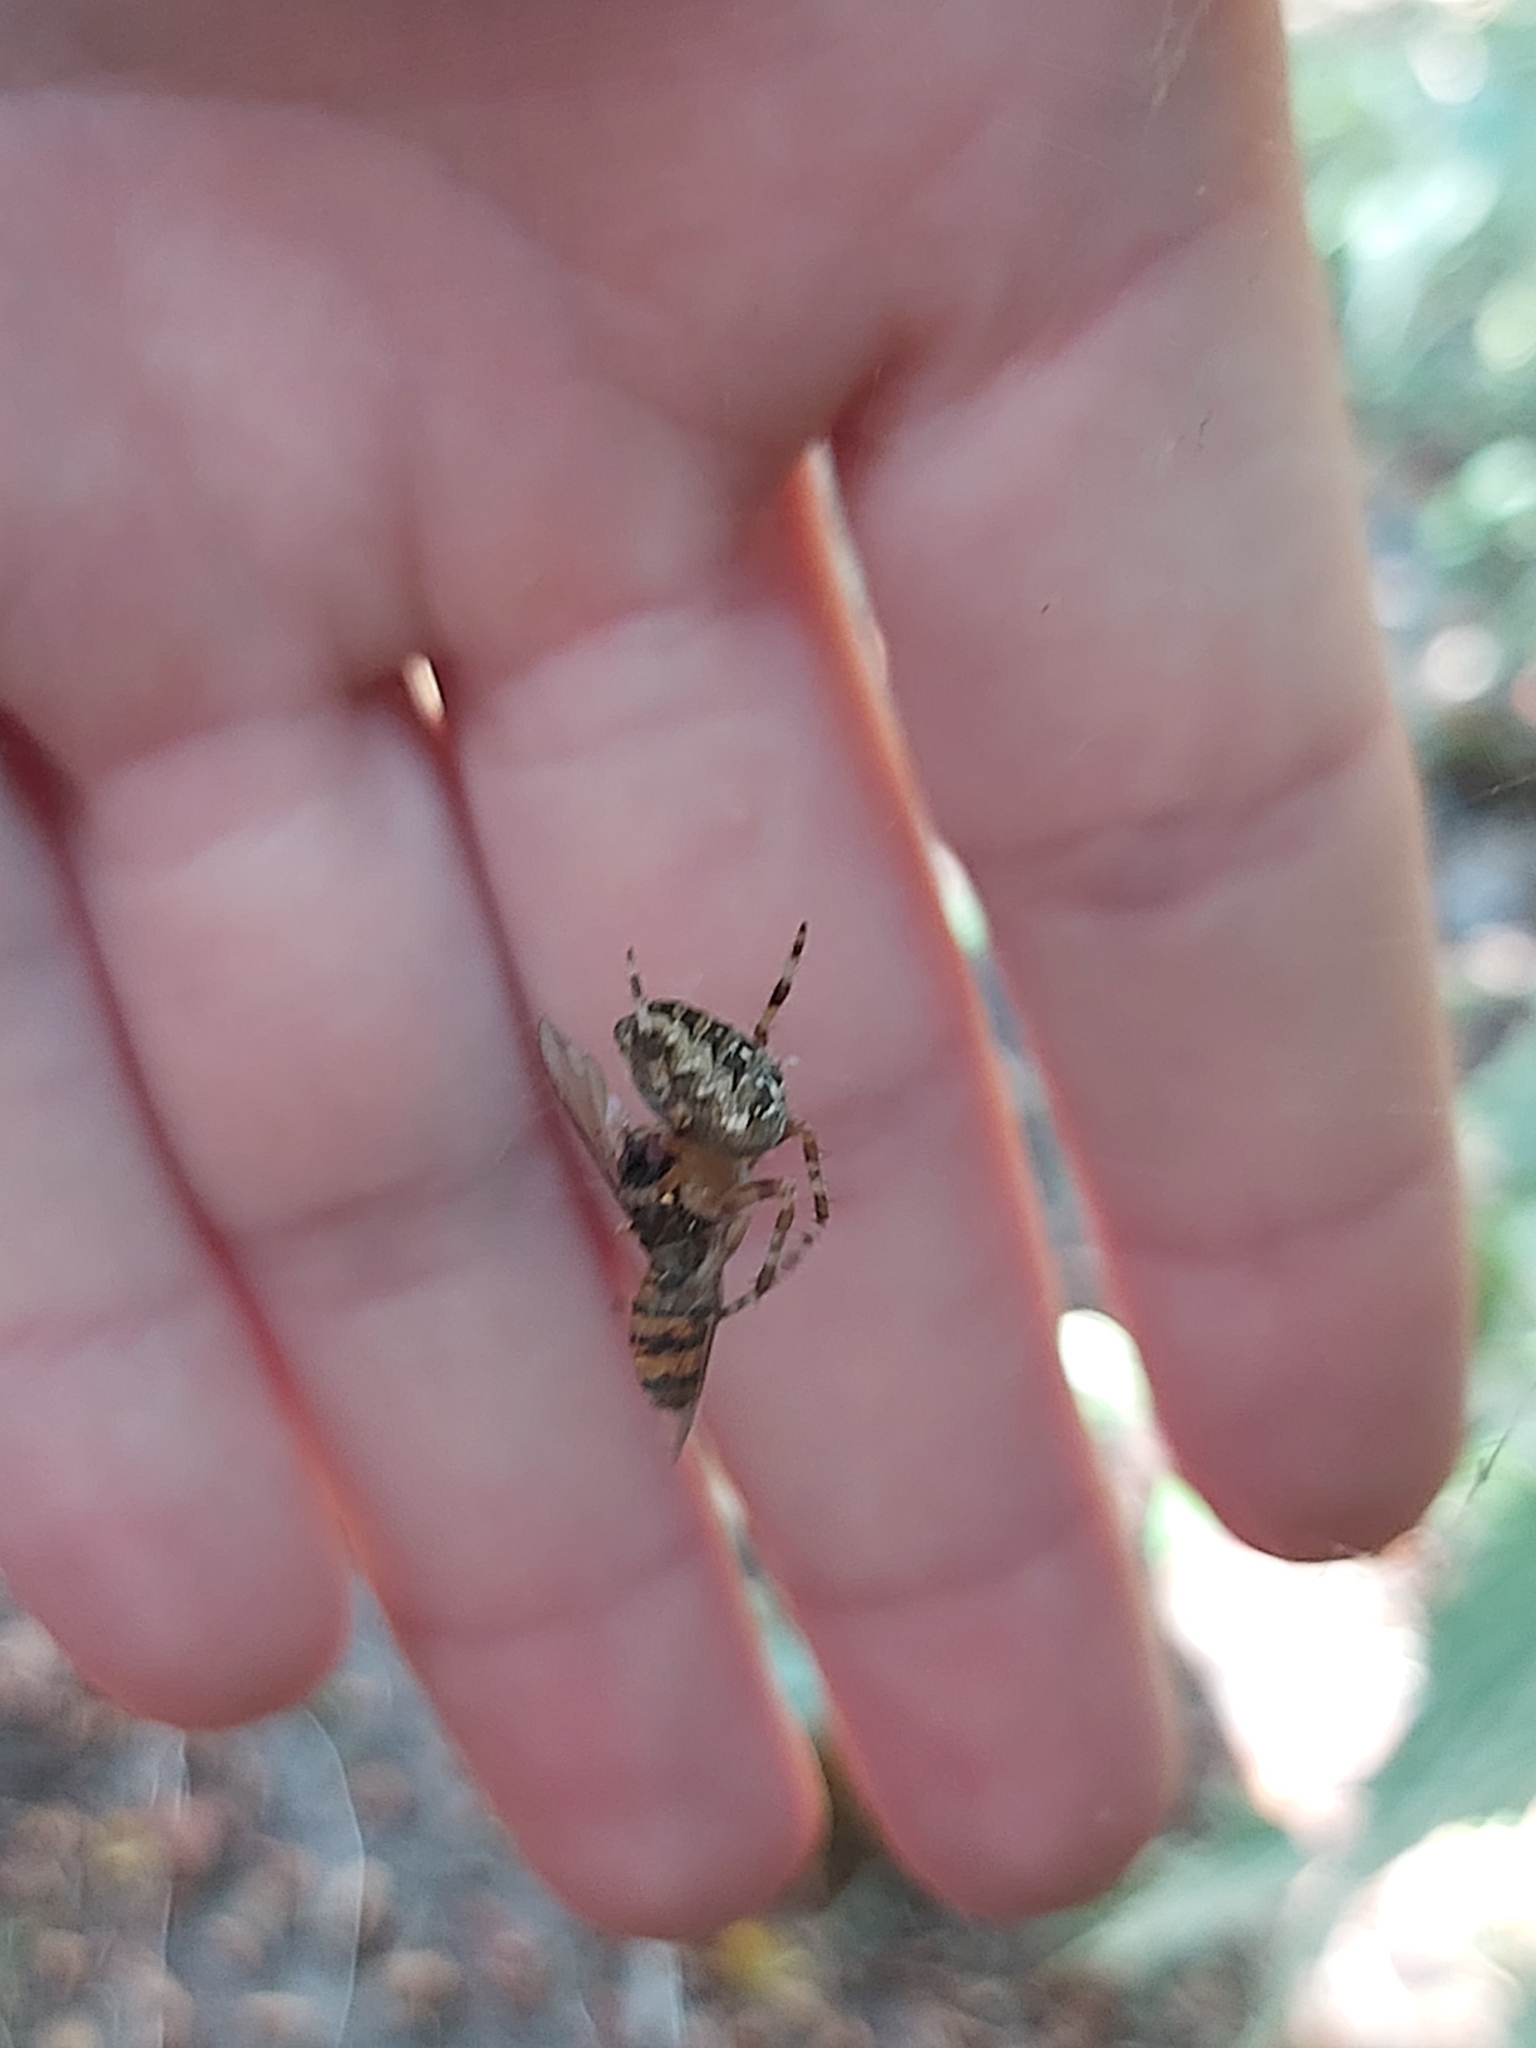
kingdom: Animalia
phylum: Arthropoda
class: Arachnida
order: Araneae
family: Araneidae
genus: Araneus
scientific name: Araneus diadematus
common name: Cross orbweaver
